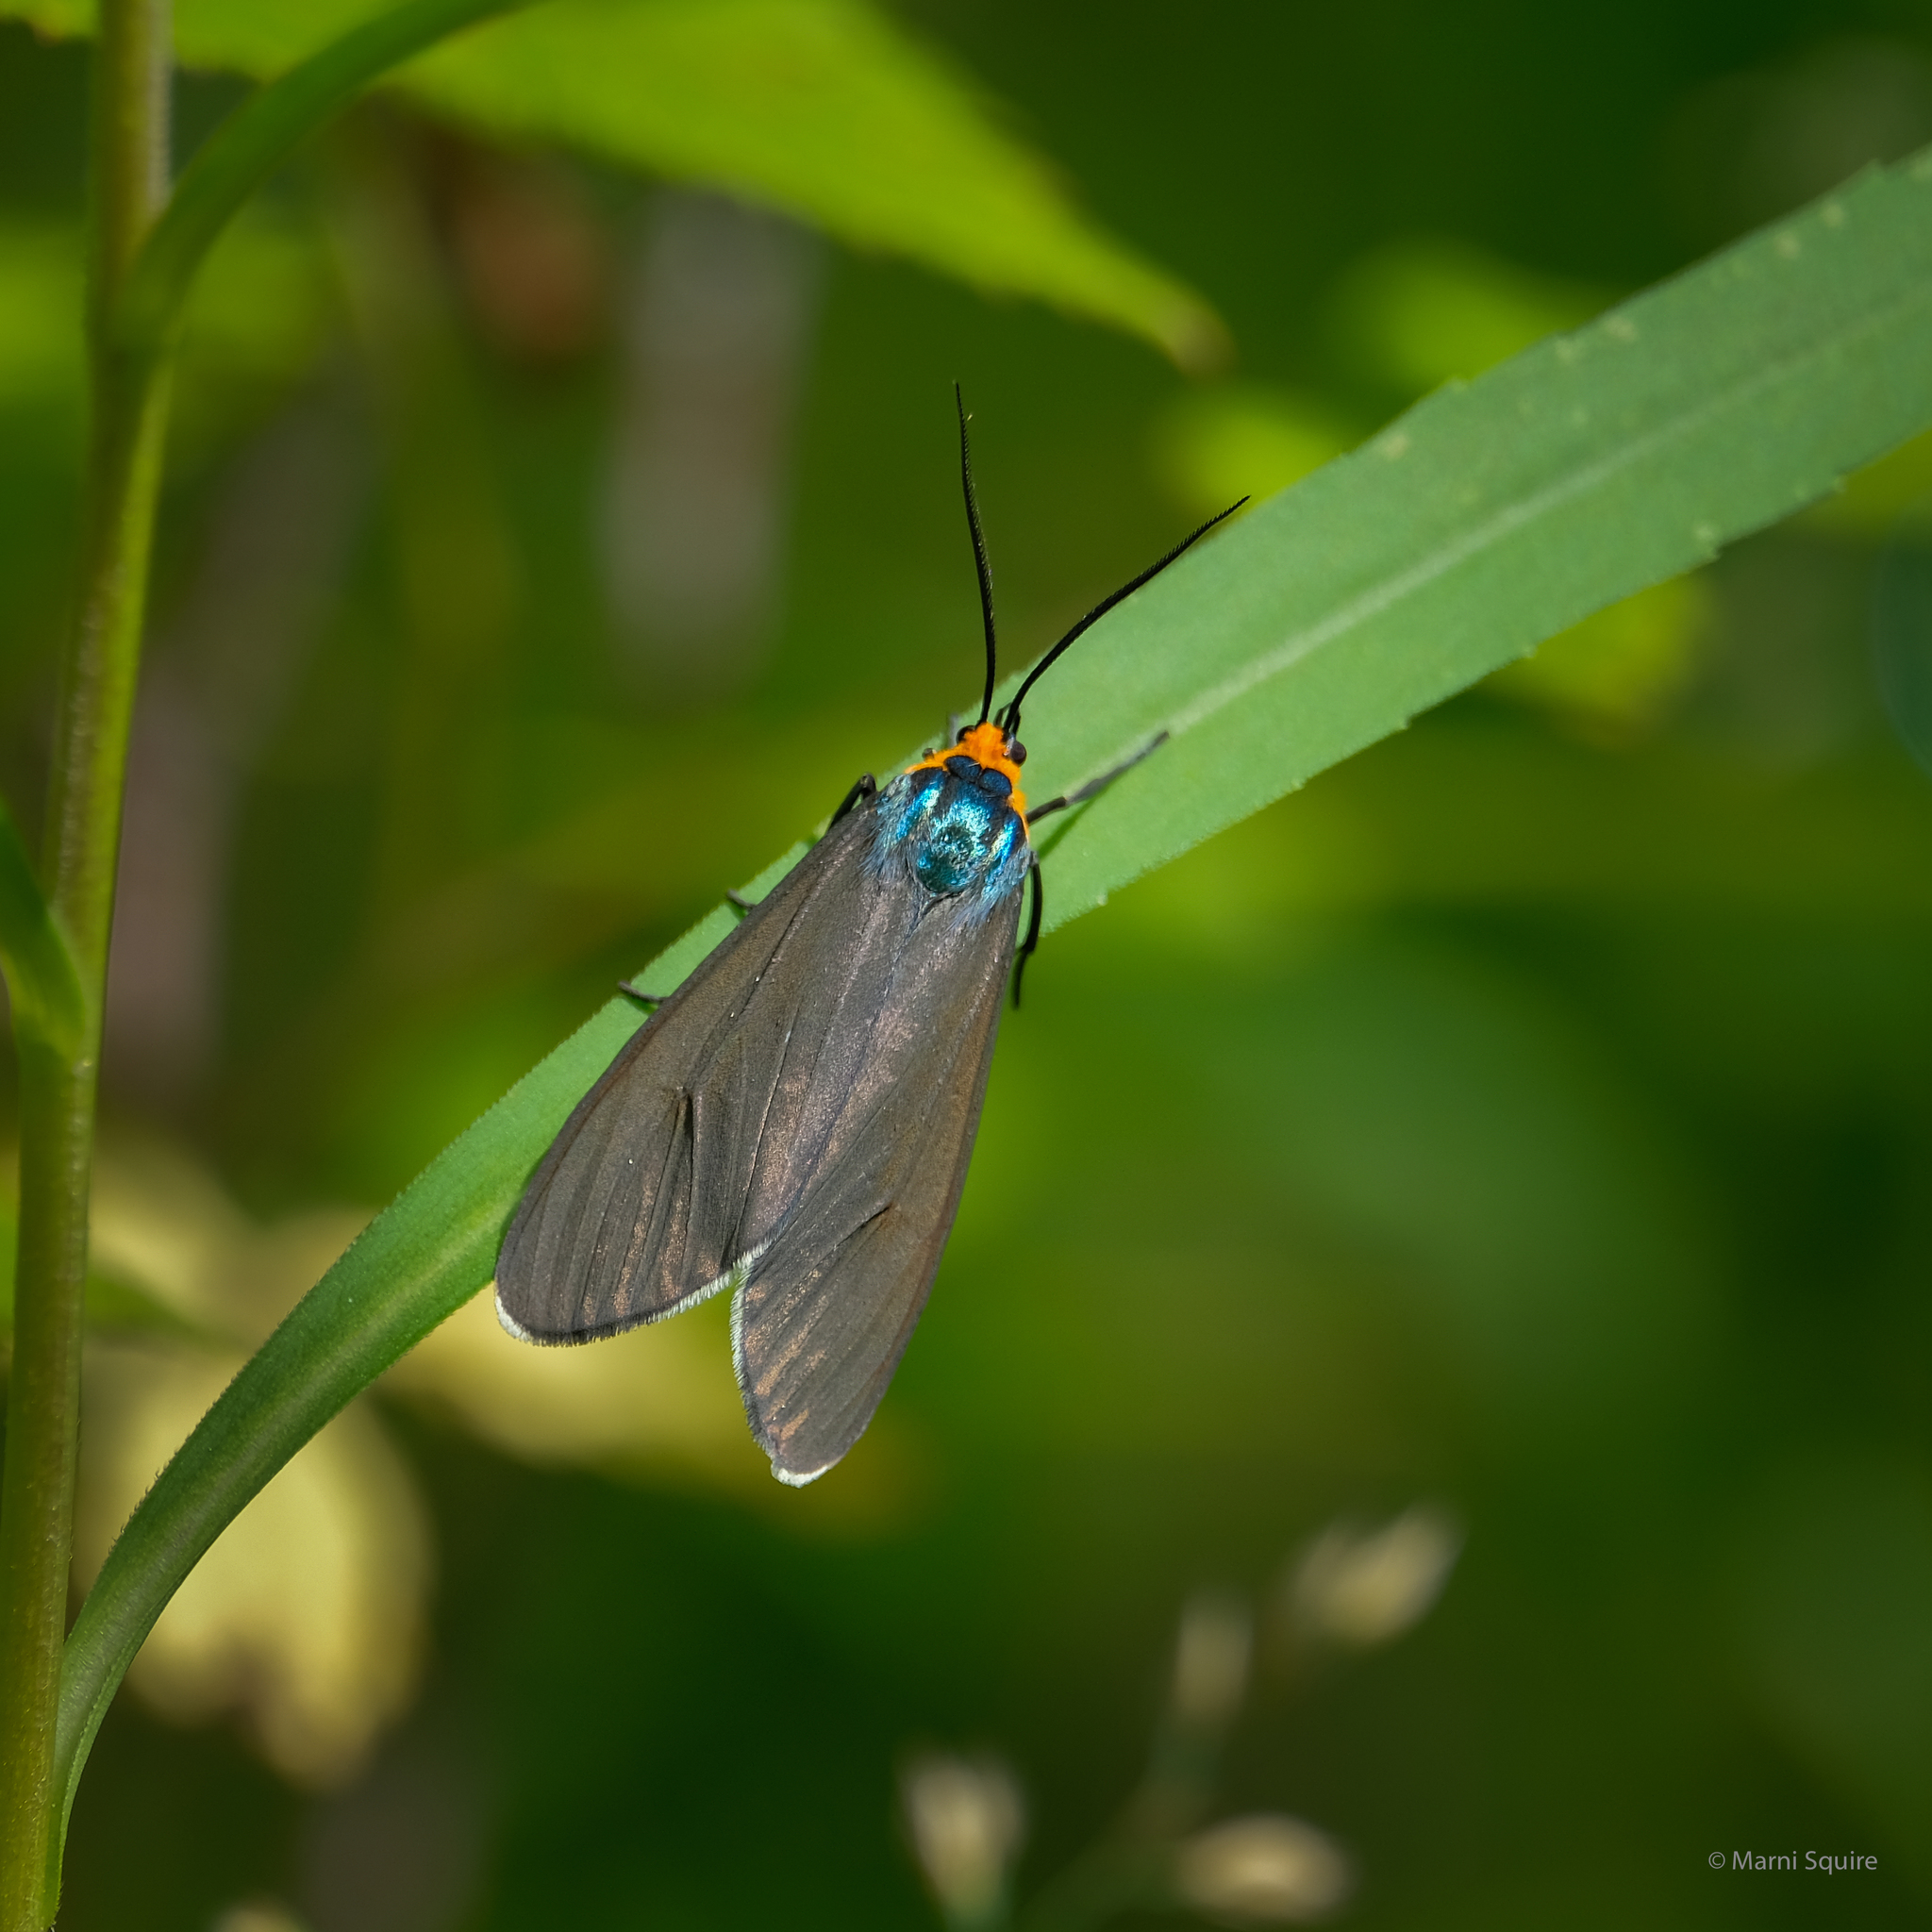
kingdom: Animalia
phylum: Arthropoda
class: Insecta
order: Lepidoptera
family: Erebidae
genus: Ctenucha
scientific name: Ctenucha virginica
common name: Virginia ctenucha moth
